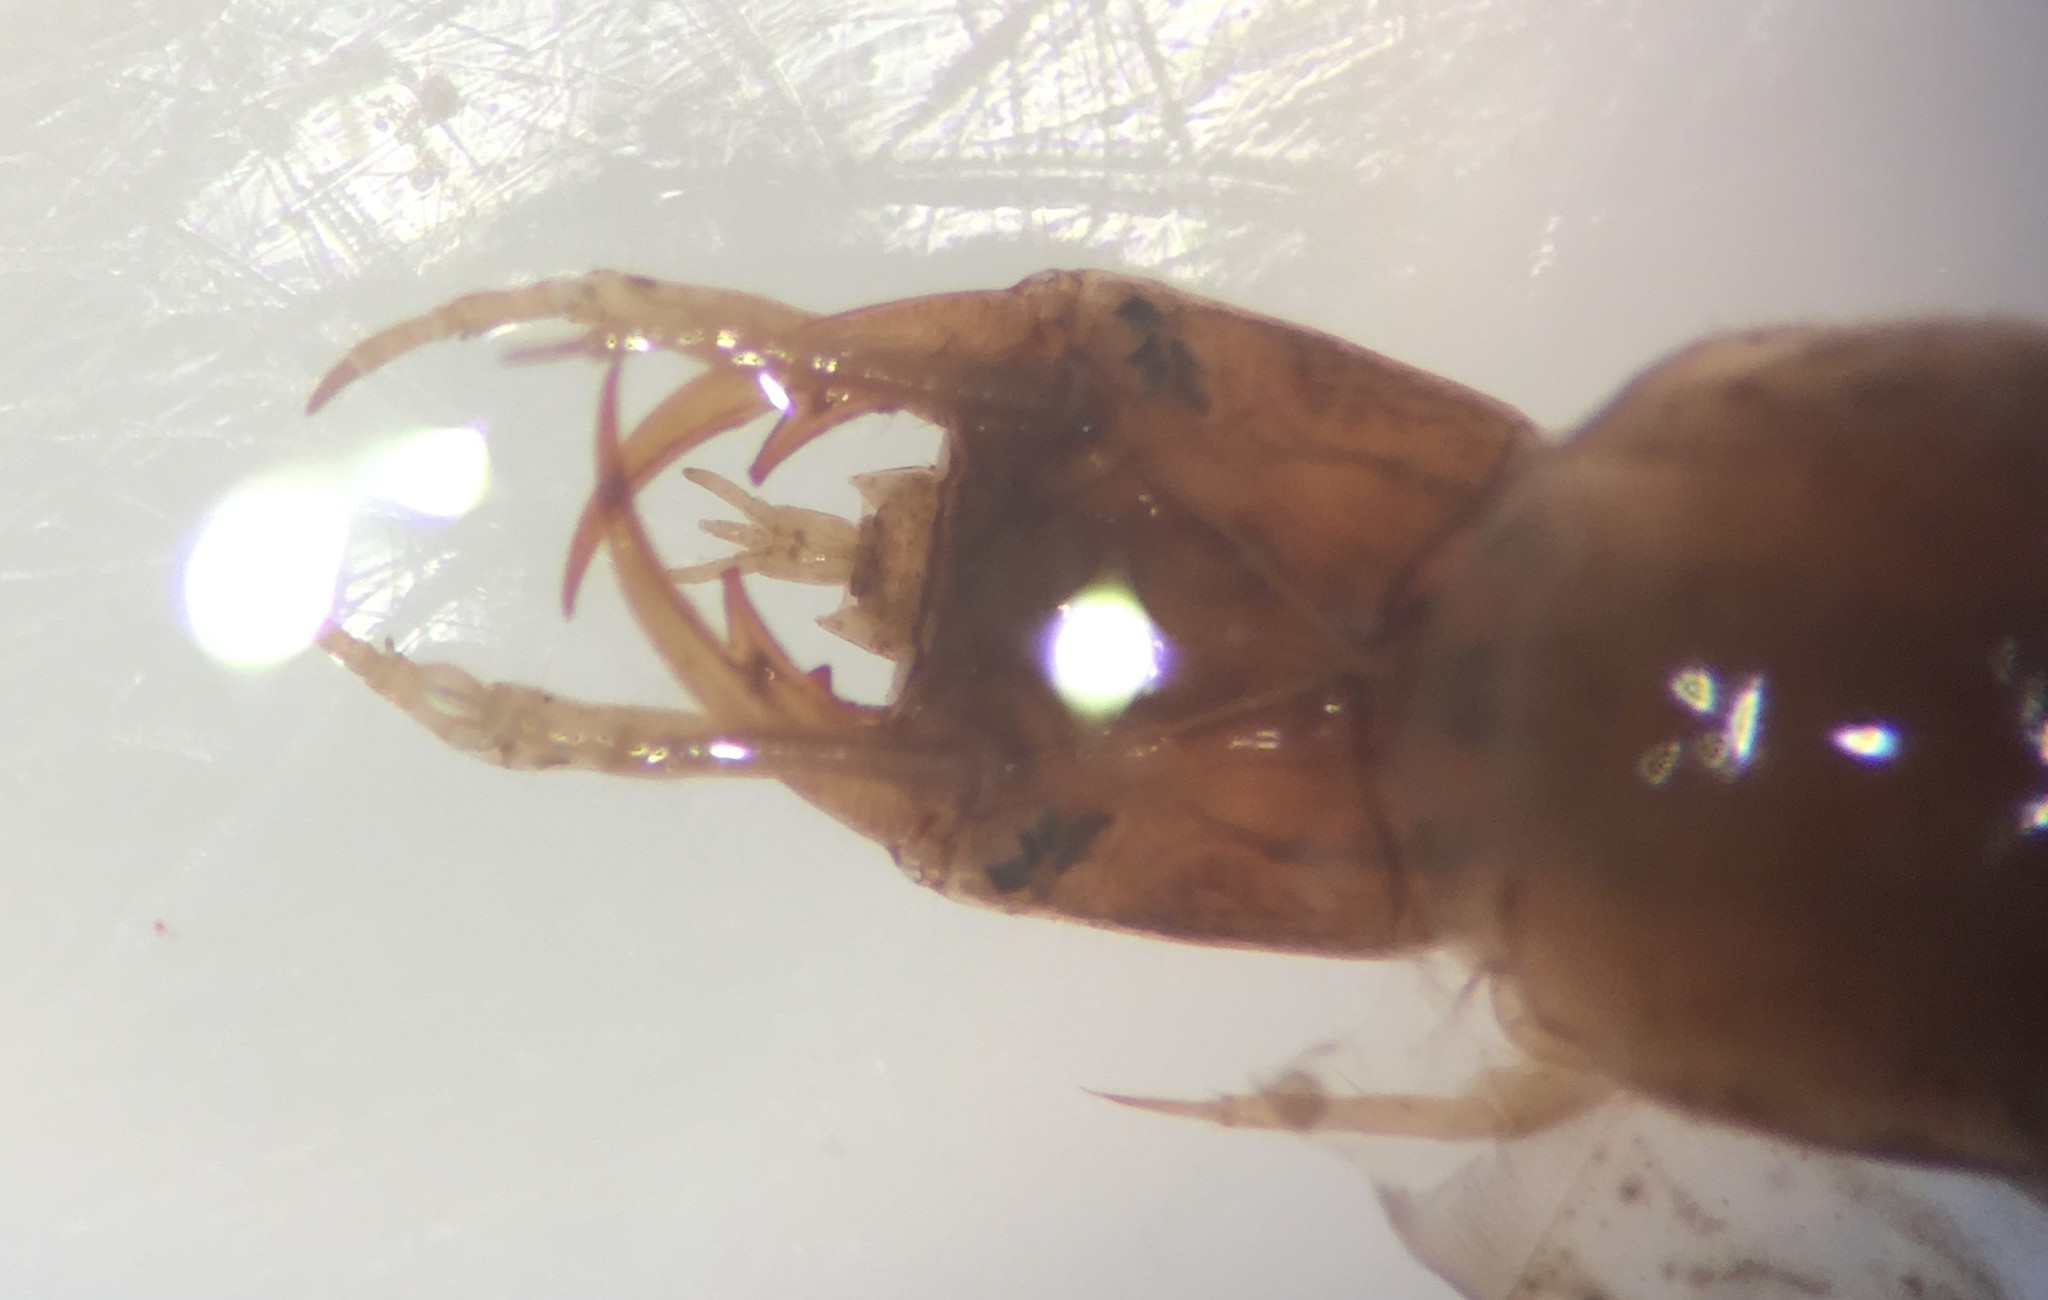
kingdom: Animalia
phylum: Arthropoda
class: Insecta
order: Coleoptera
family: Hydrophilidae
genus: Tropisternus
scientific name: Tropisternus quadristriatus
